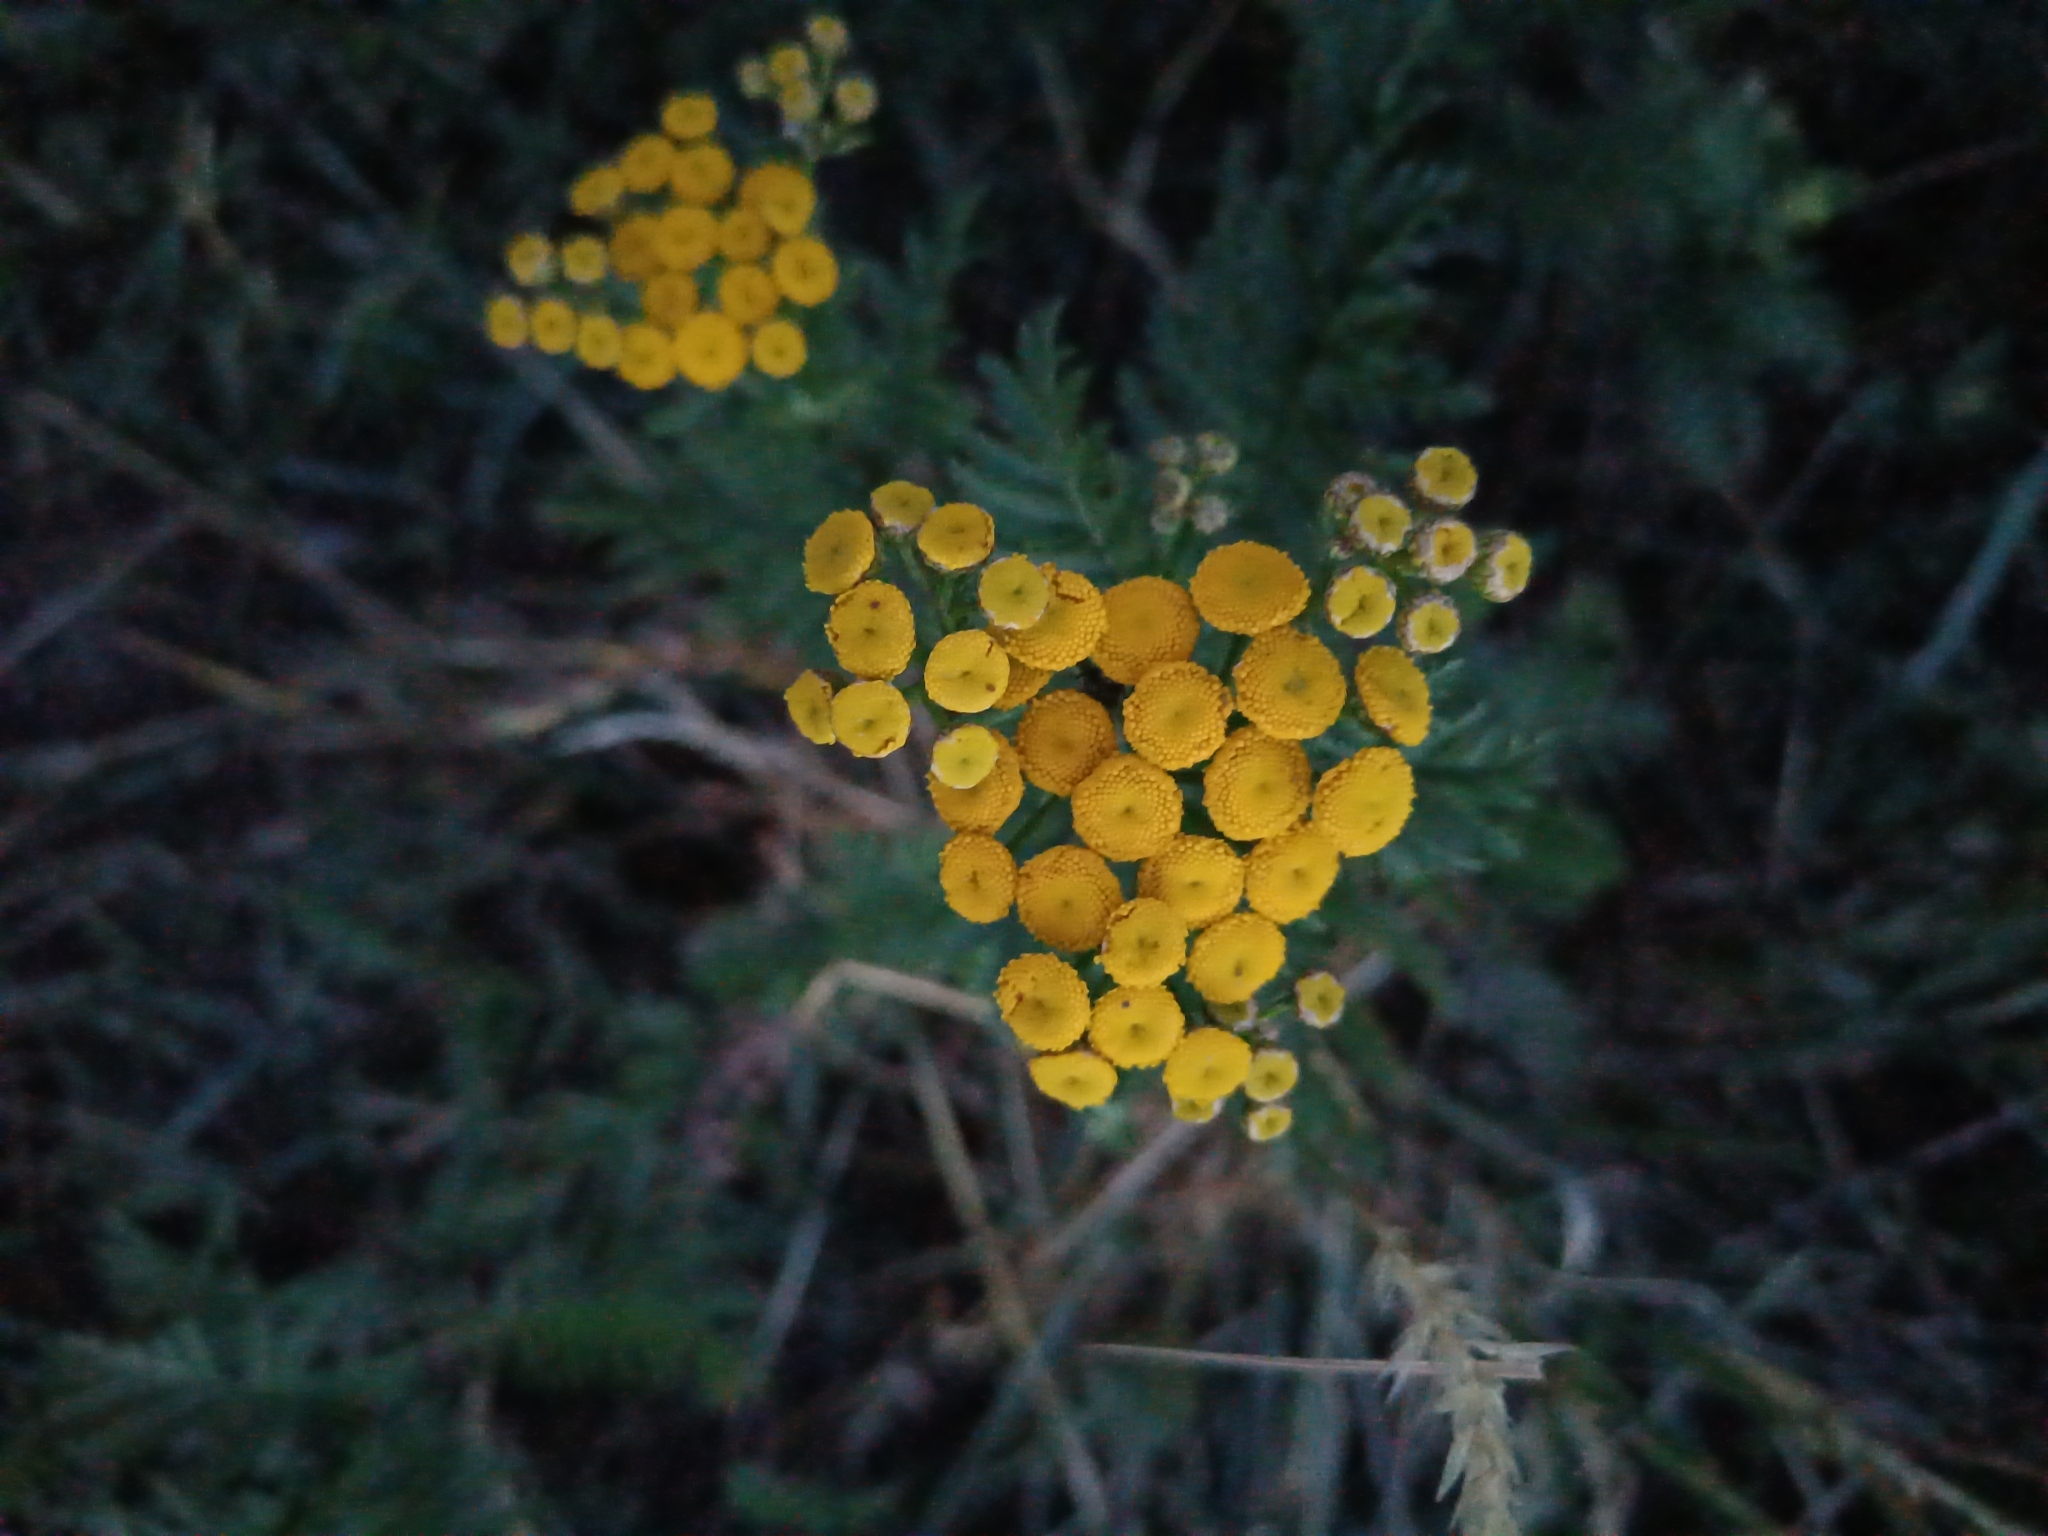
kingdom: Plantae
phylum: Tracheophyta
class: Magnoliopsida
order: Asterales
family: Asteraceae
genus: Tanacetum
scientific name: Tanacetum vulgare
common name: Common tansy
